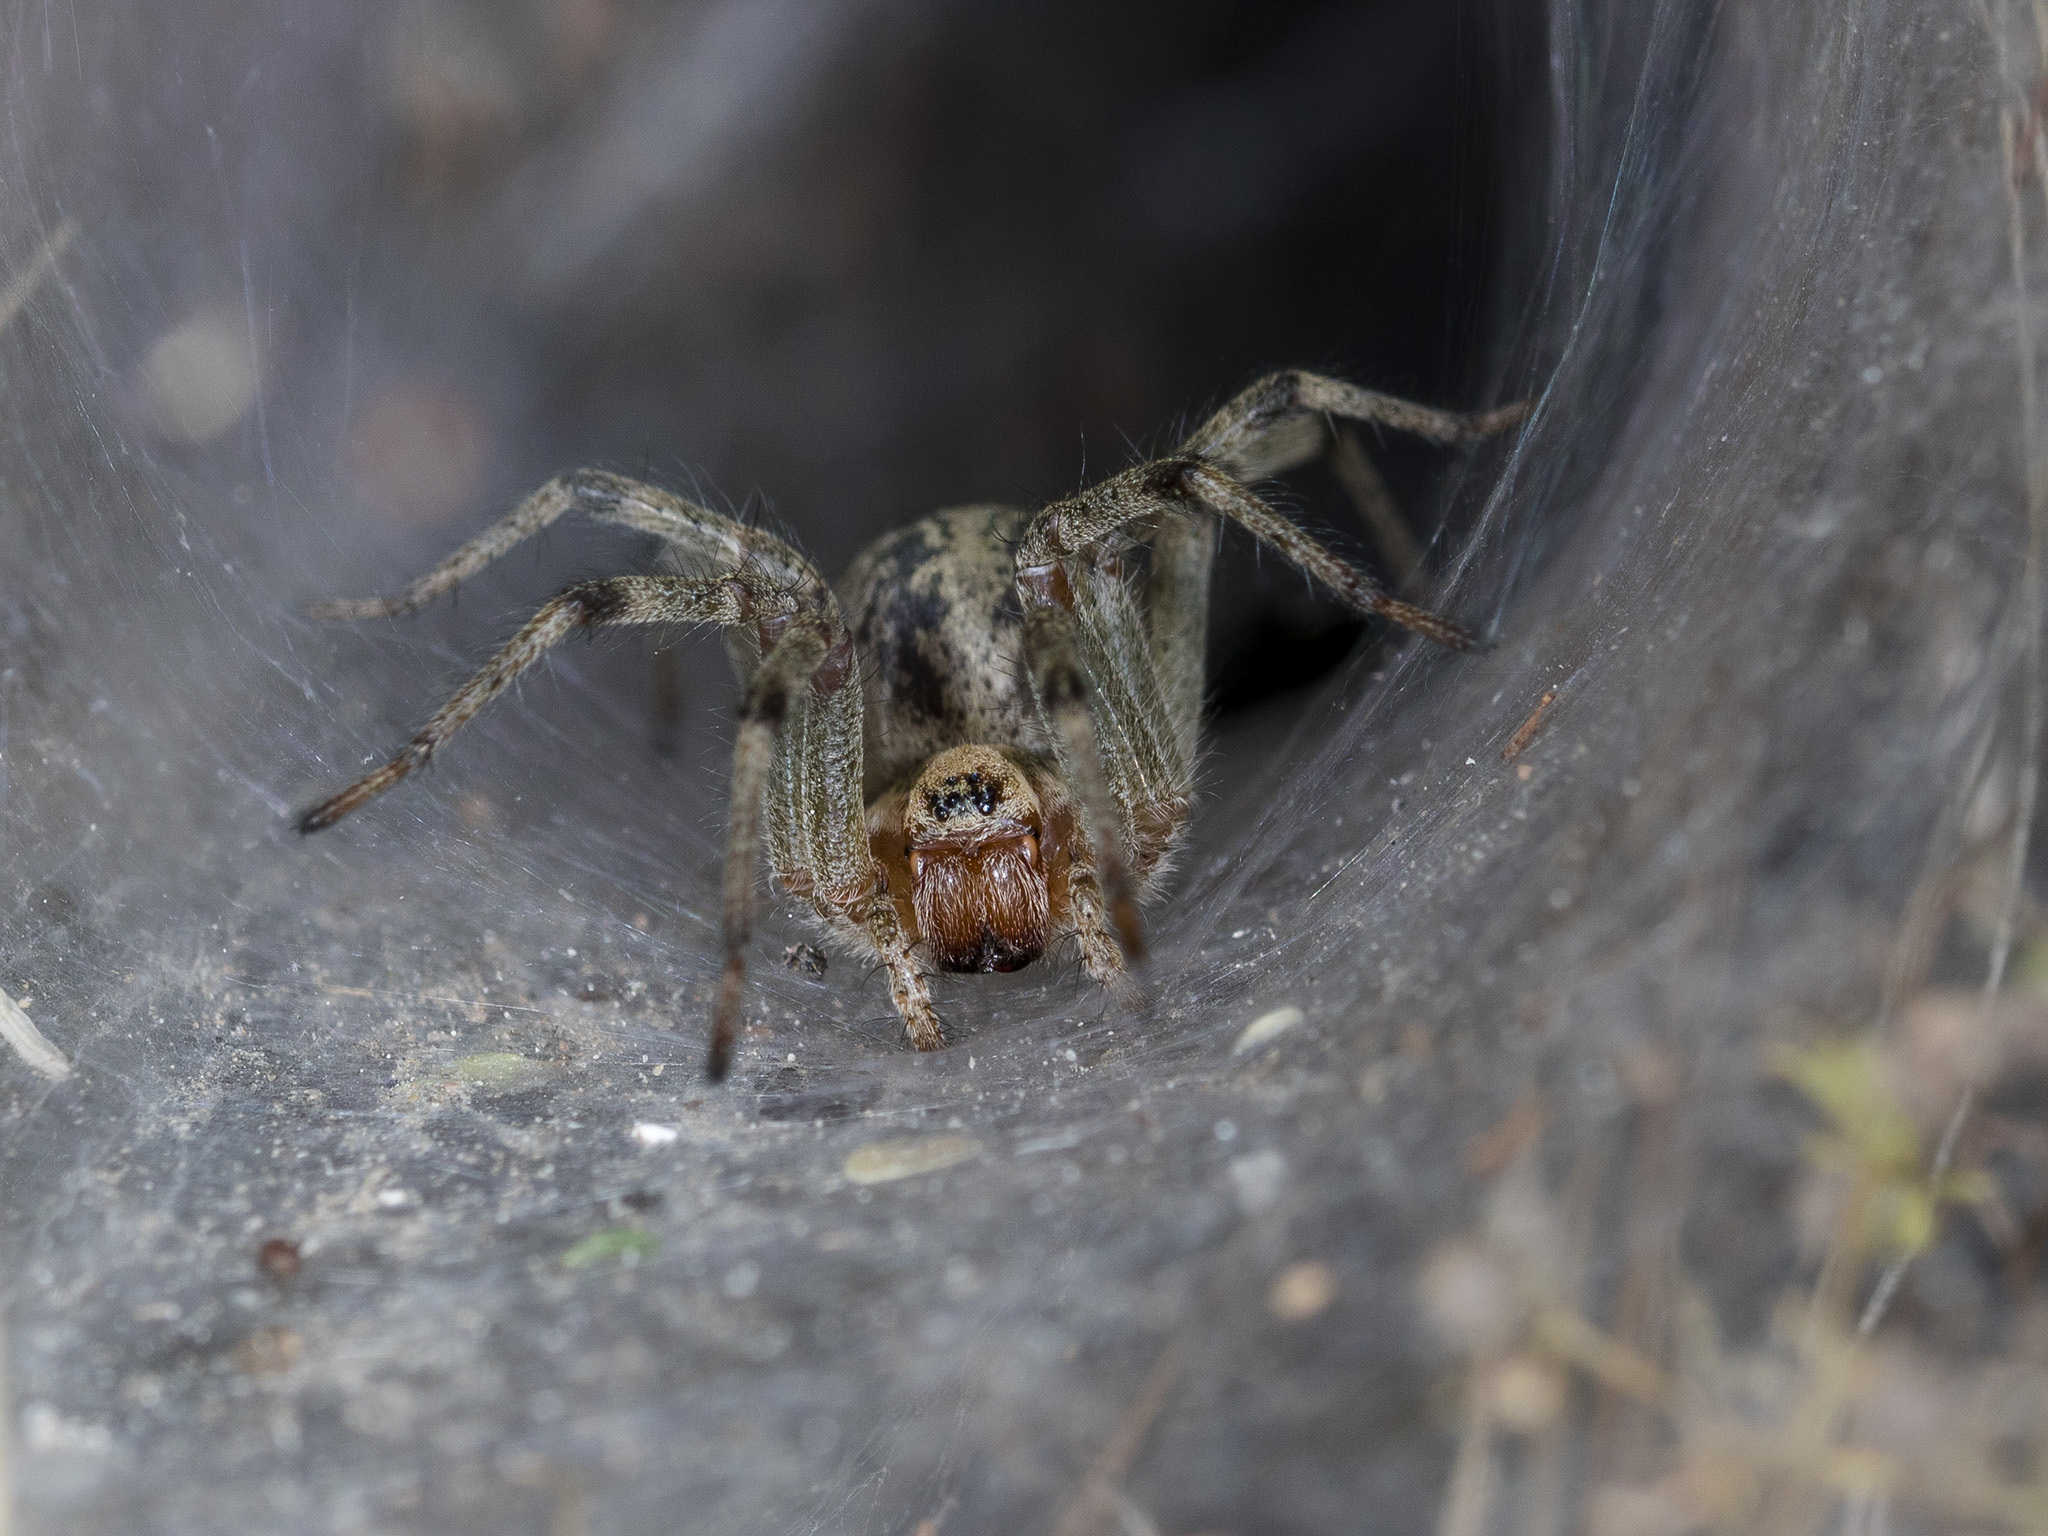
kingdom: Animalia
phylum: Arthropoda
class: Arachnida
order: Araneae
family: Agelenidae
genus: Agelena
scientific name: Agelena labyrinthica
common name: Labyrinth spider
